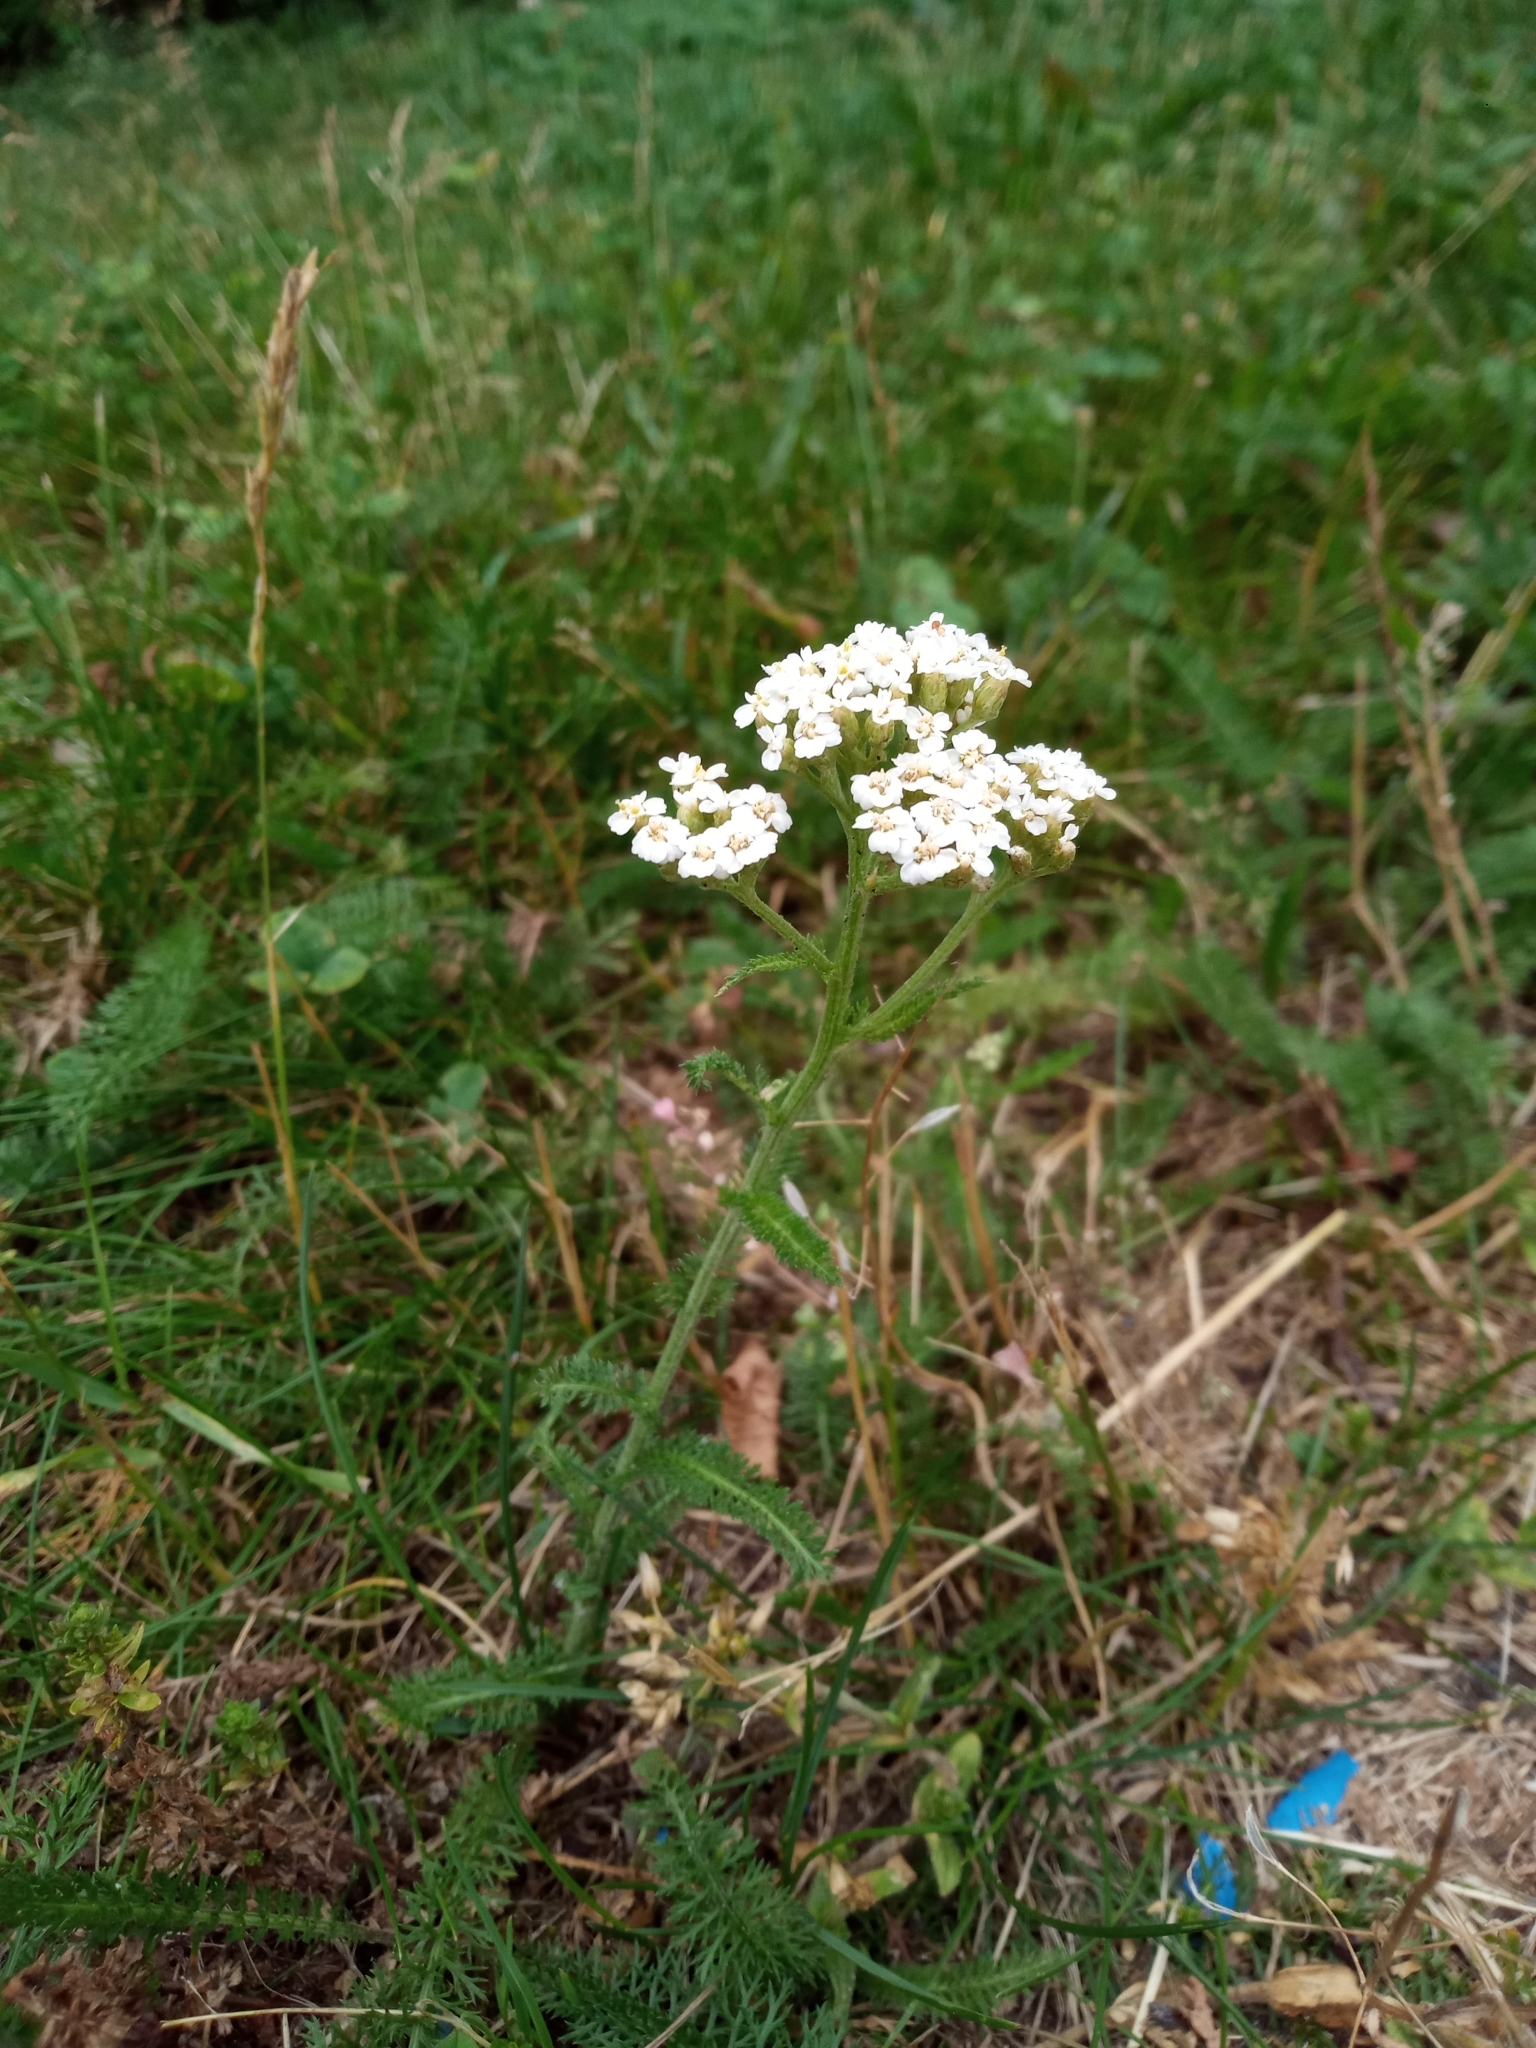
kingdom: Plantae
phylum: Tracheophyta
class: Magnoliopsida
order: Asterales
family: Asteraceae
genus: Achillea
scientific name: Achillea millefolium
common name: Yarrow
